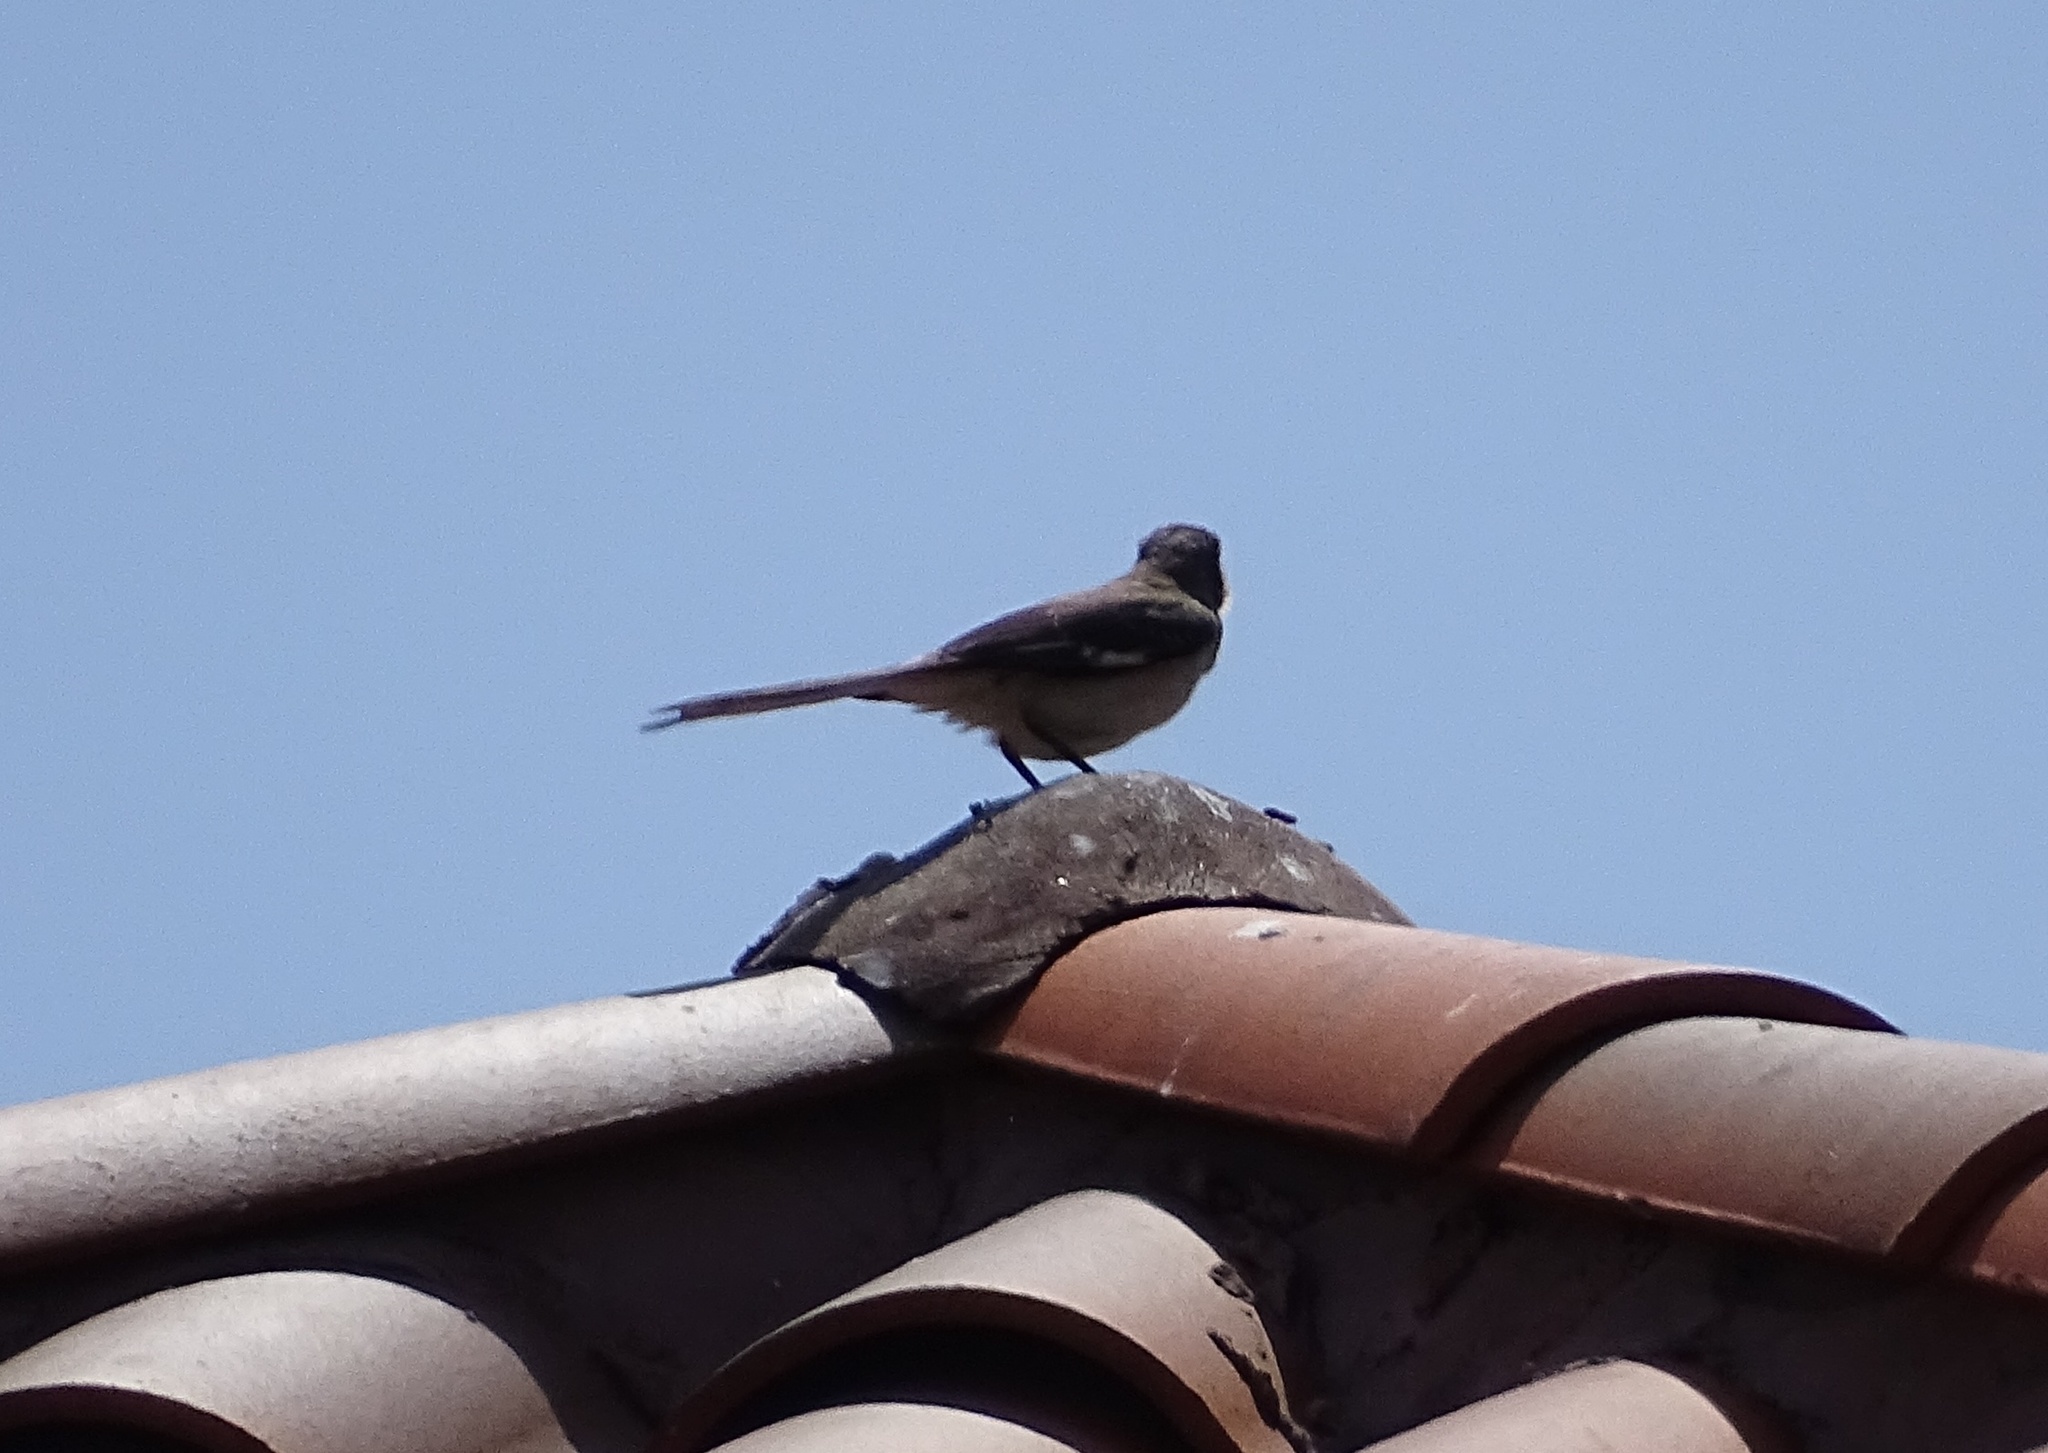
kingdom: Animalia
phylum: Chordata
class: Aves
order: Passeriformes
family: Mimidae
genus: Mimus
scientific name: Mimus polyglottos
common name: Northern mockingbird
